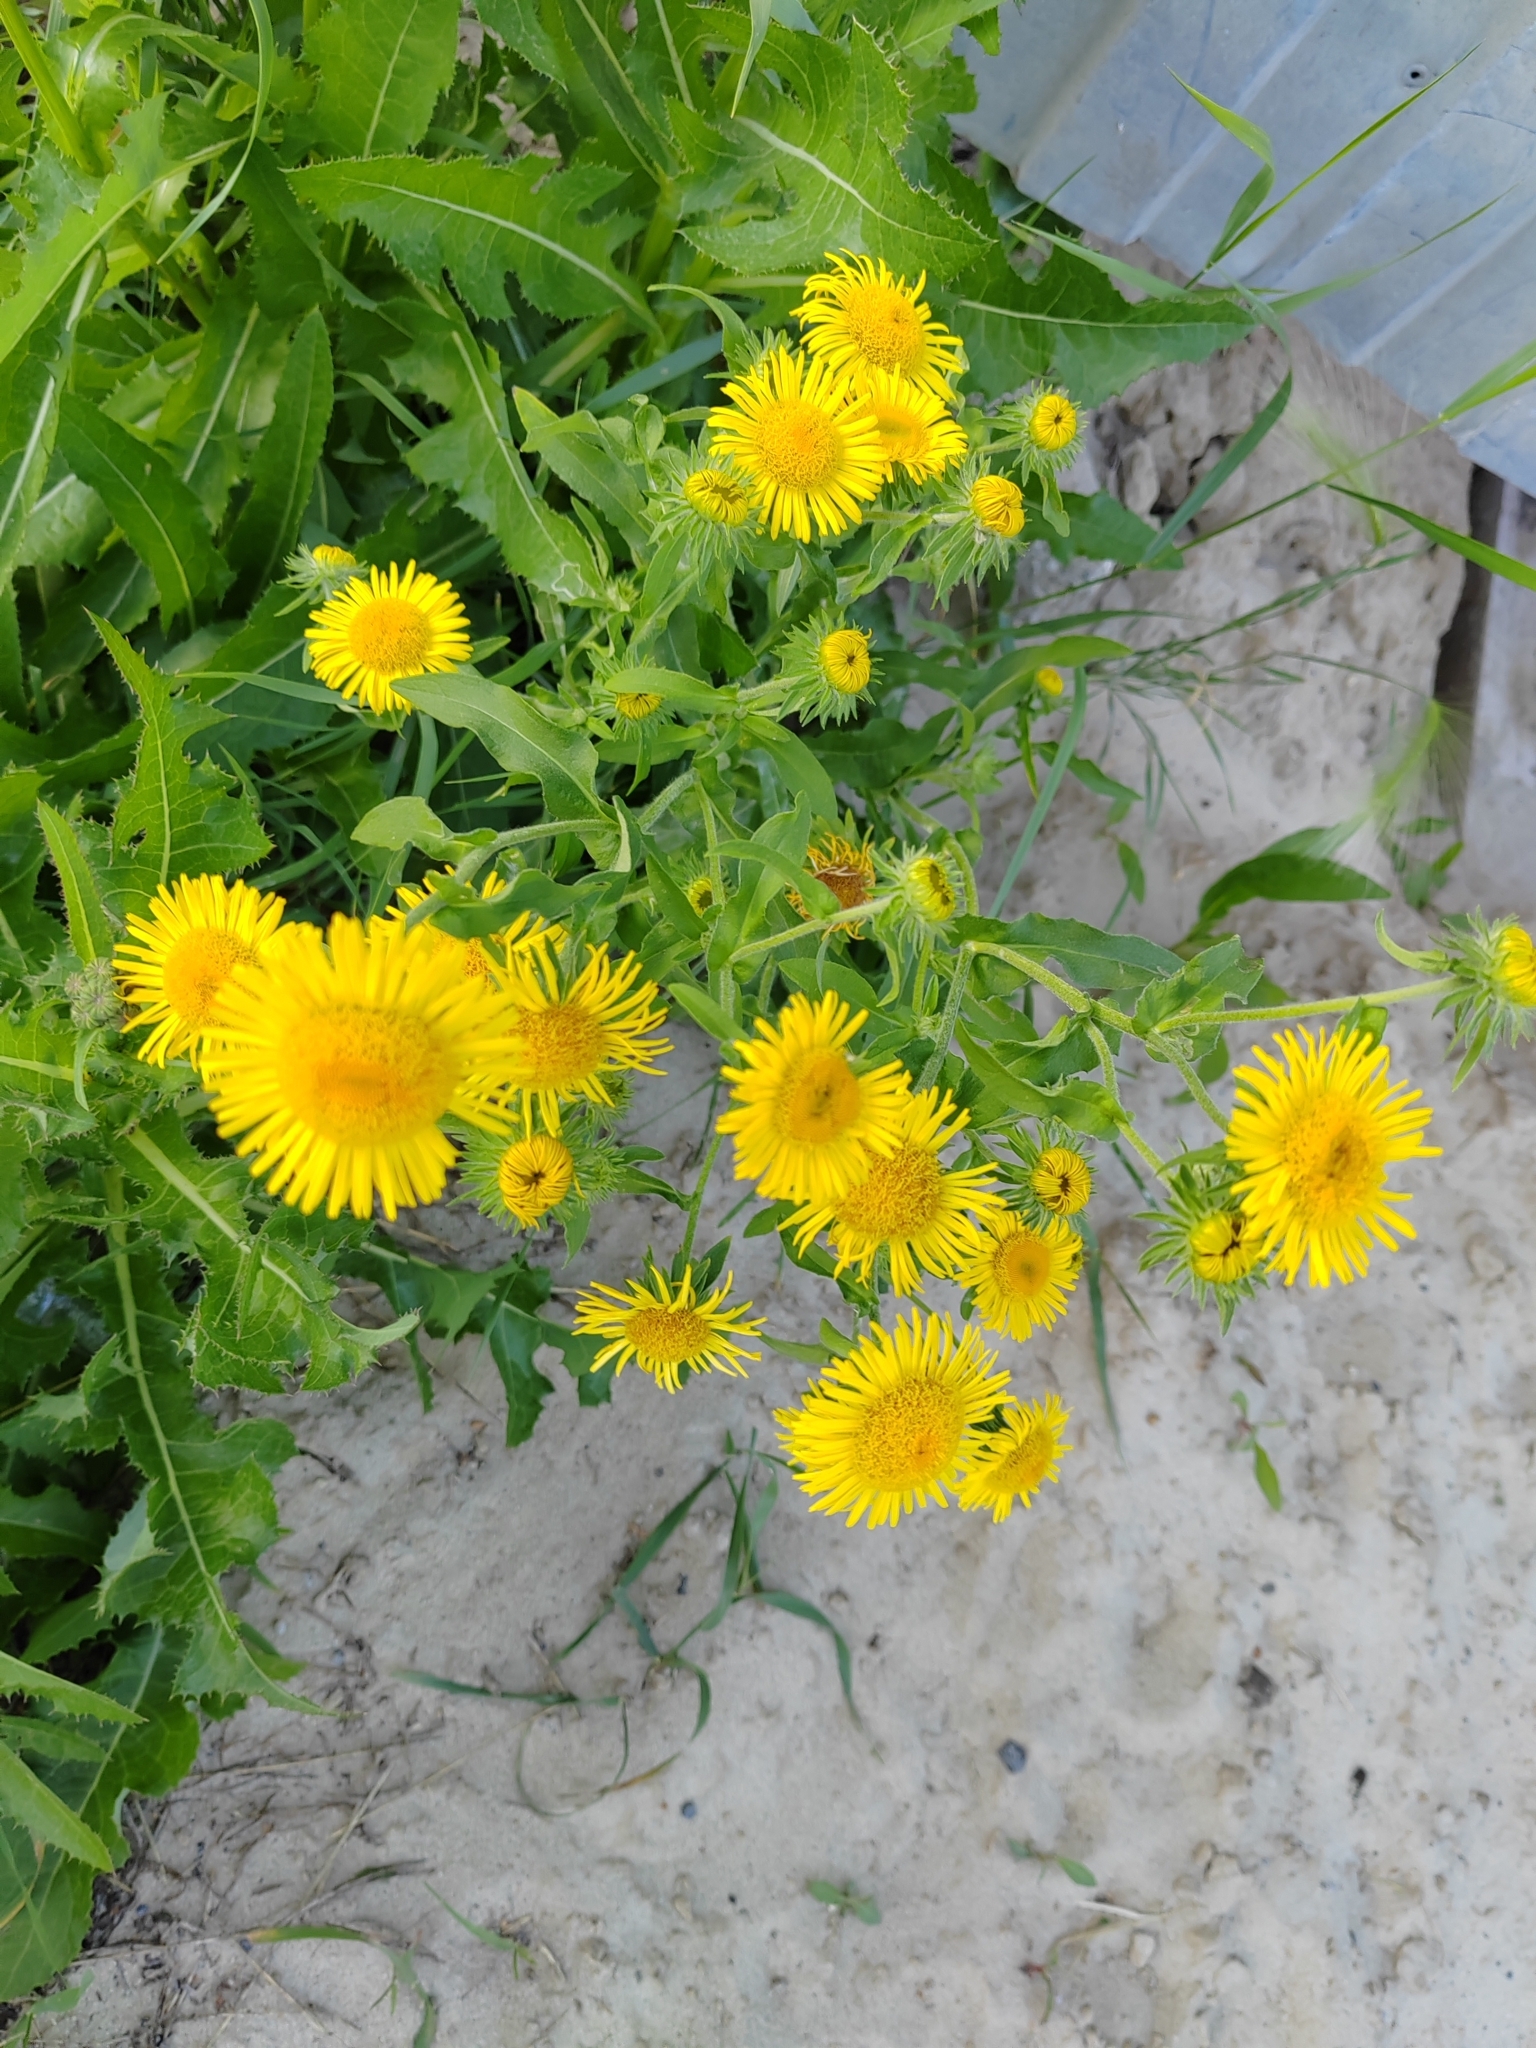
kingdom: Plantae
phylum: Tracheophyta
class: Magnoliopsida
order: Asterales
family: Asteraceae
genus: Pentanema
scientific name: Pentanema britannicum
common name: British elecampane
